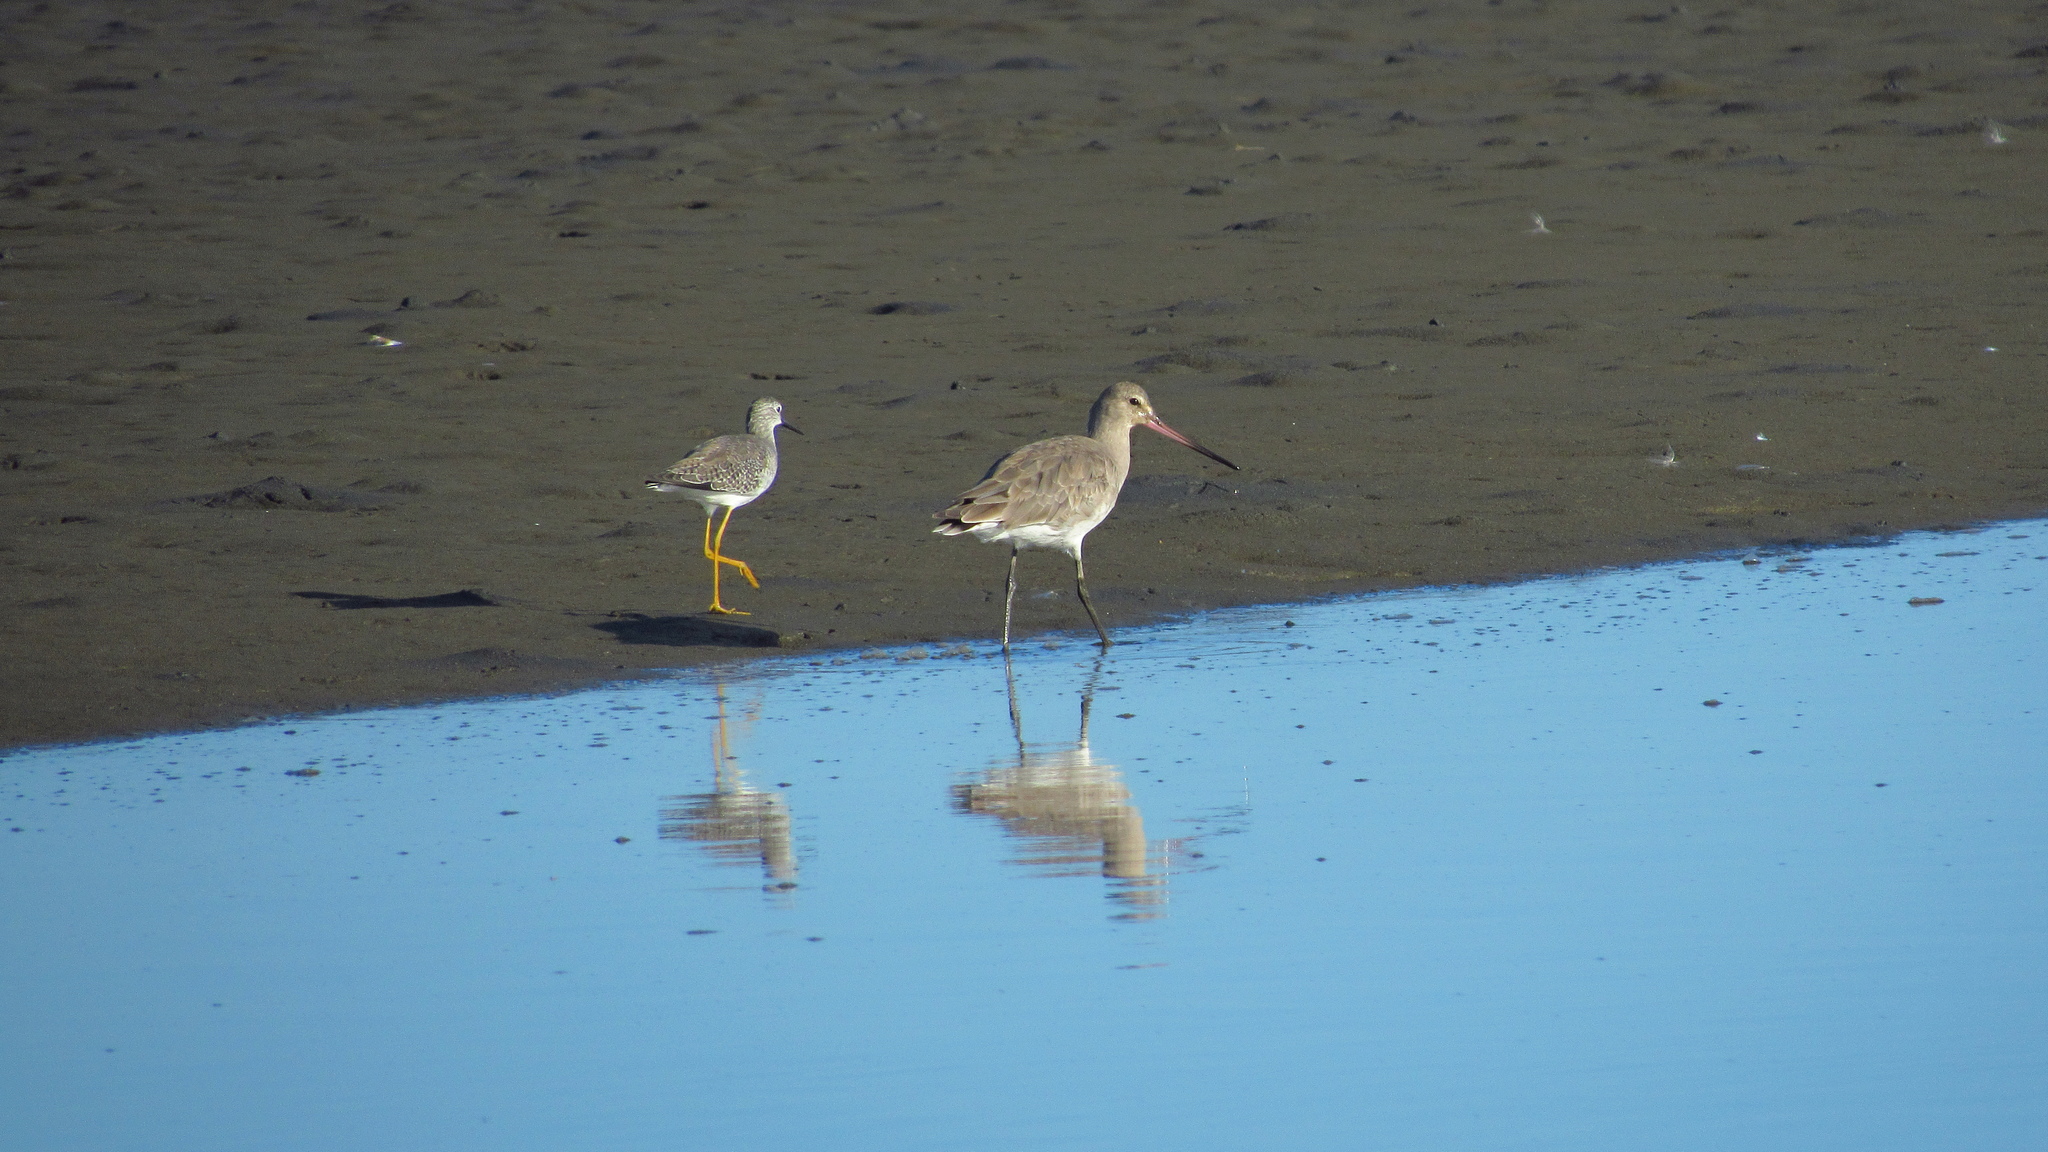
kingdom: Animalia
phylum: Chordata
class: Aves
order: Charadriiformes
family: Scolopacidae
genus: Limosa
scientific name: Limosa haemastica
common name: Hudsonian godwit
